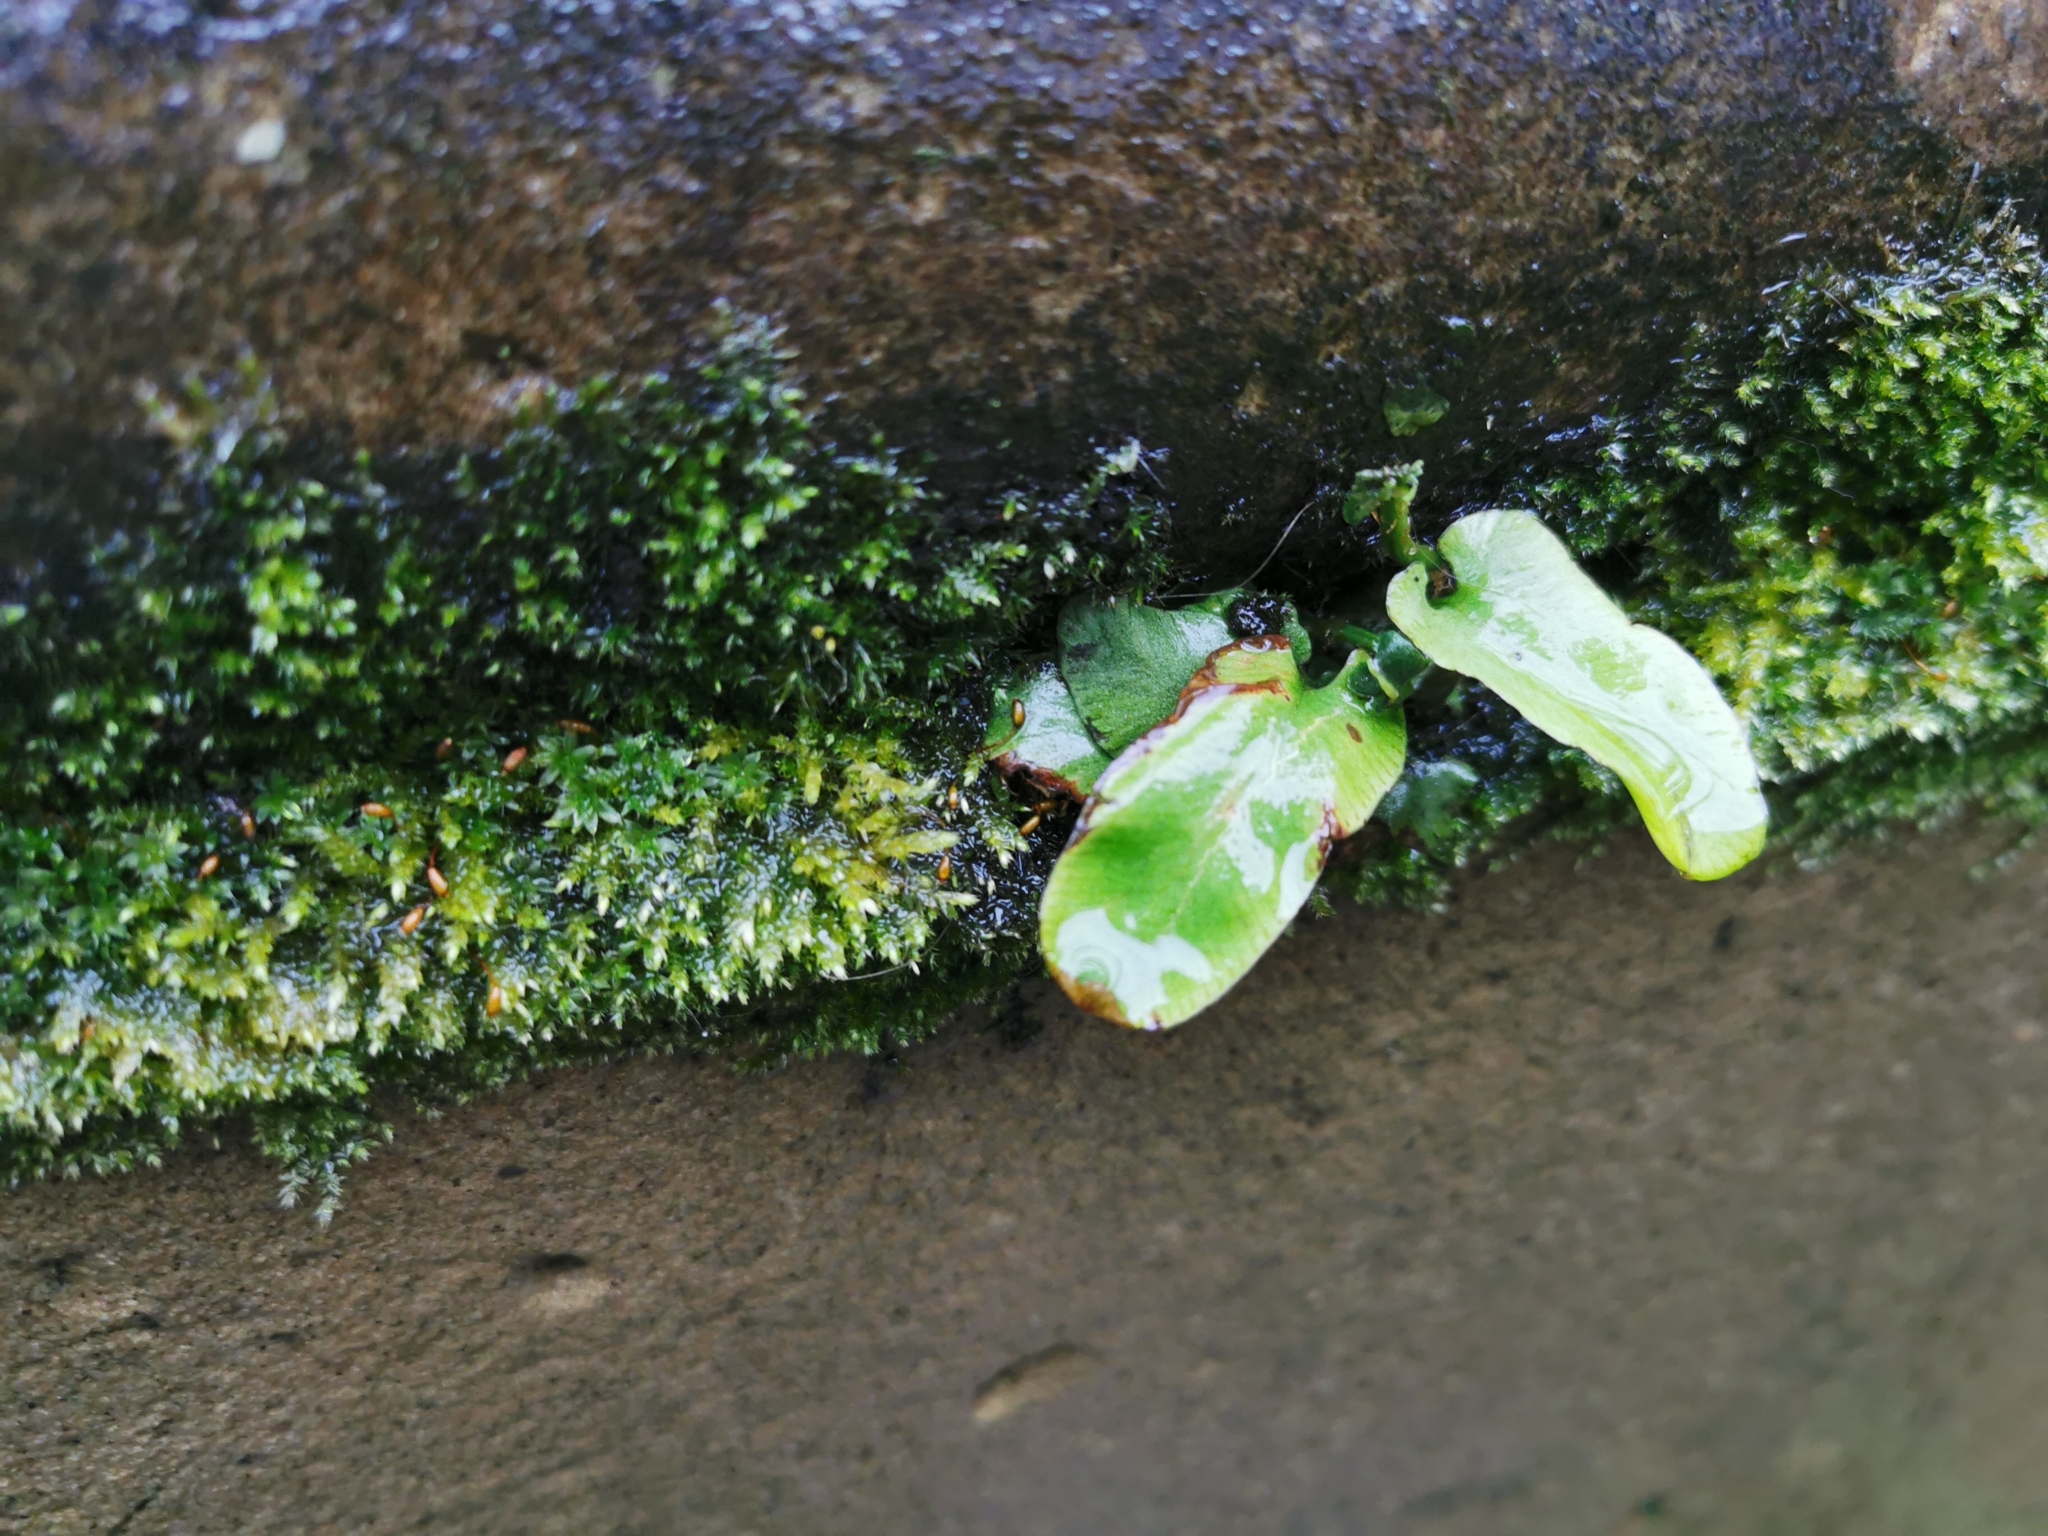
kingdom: Plantae
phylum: Tracheophyta
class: Polypodiopsida
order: Polypodiales
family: Aspleniaceae
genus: Asplenium
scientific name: Asplenium scolopendrium
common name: Hart's-tongue fern
